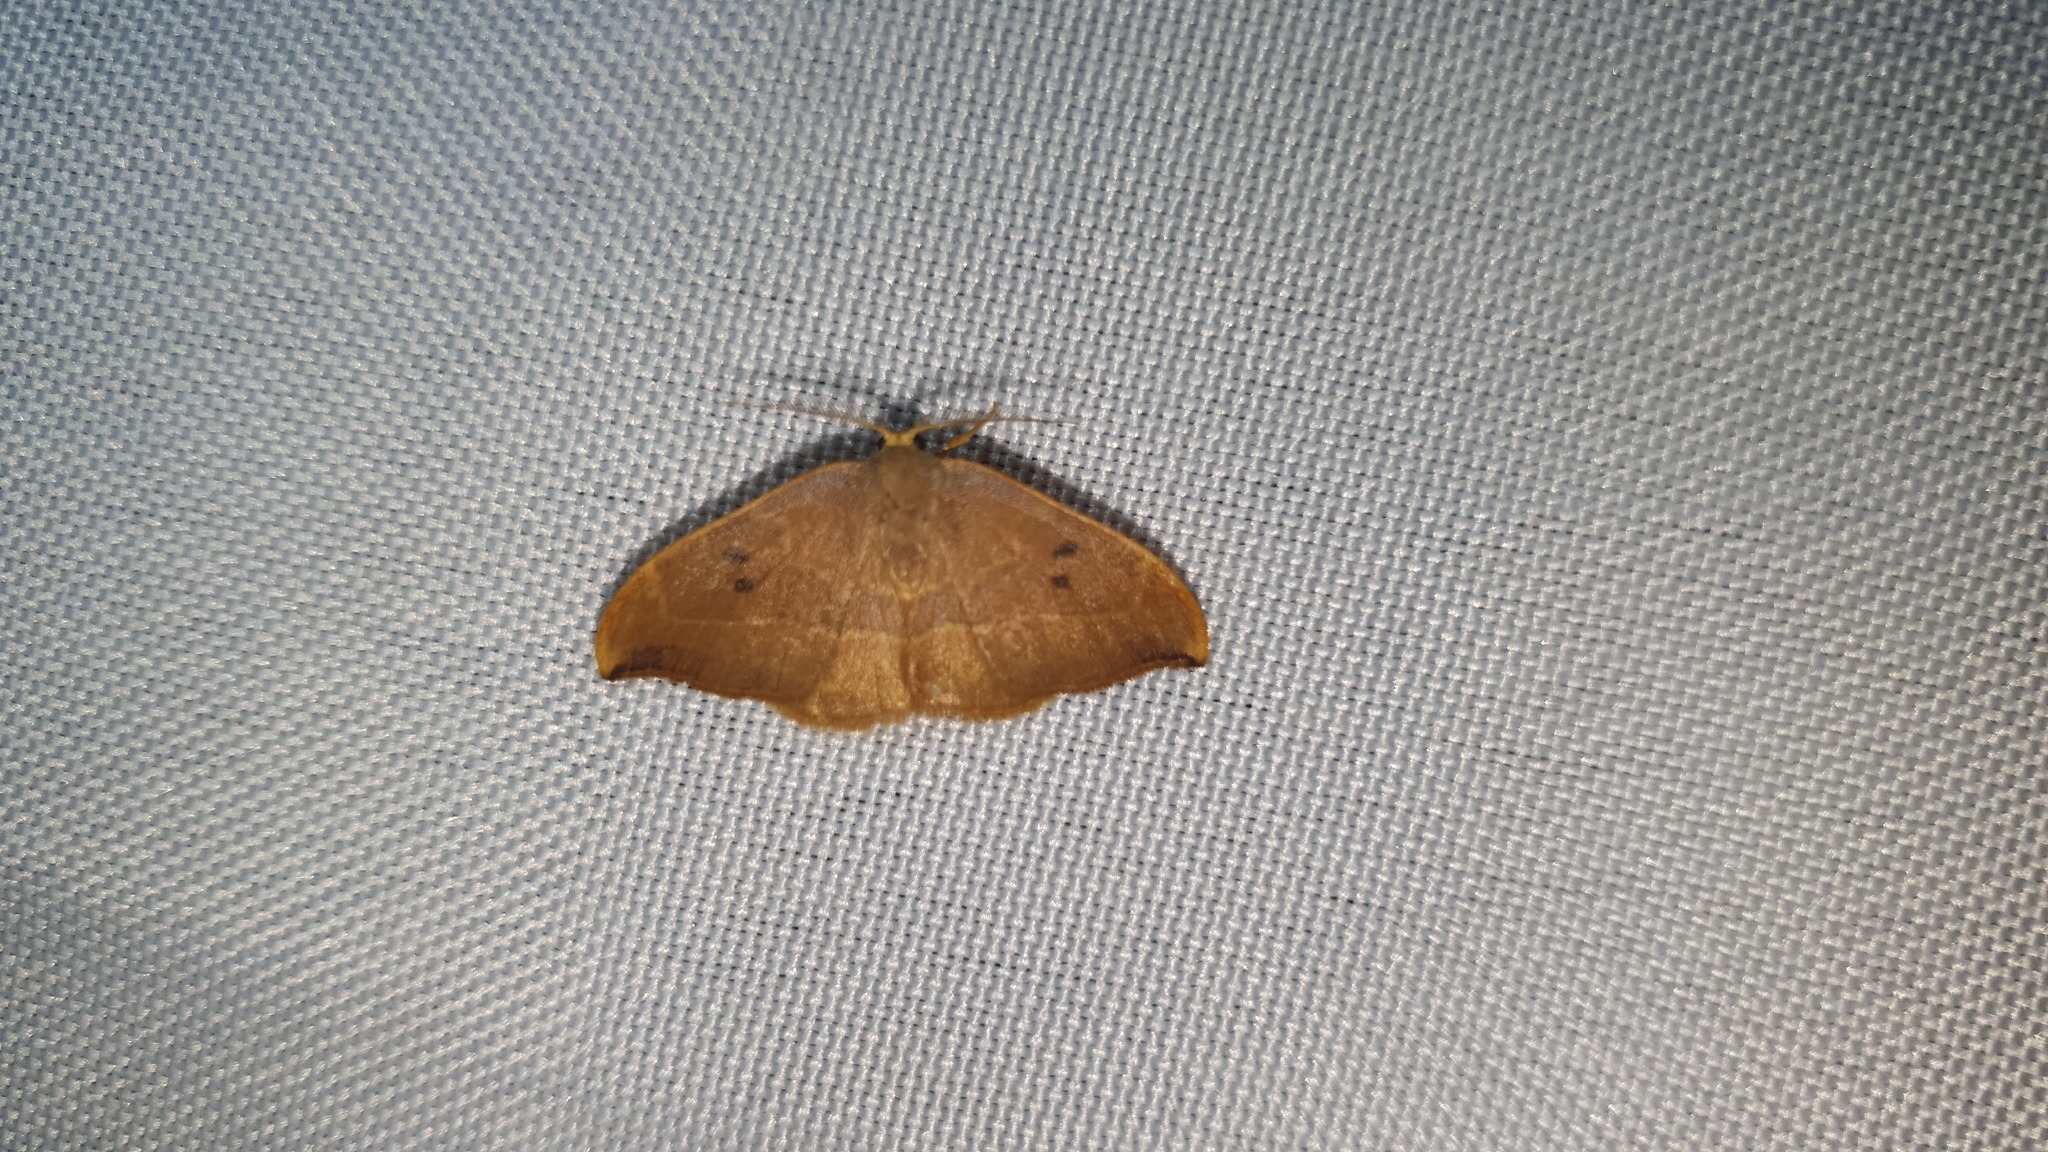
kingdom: Animalia
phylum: Arthropoda
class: Insecta
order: Lepidoptera
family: Drepanidae
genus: Watsonalla
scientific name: Watsonalla binaria
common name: Oak hook-tip
